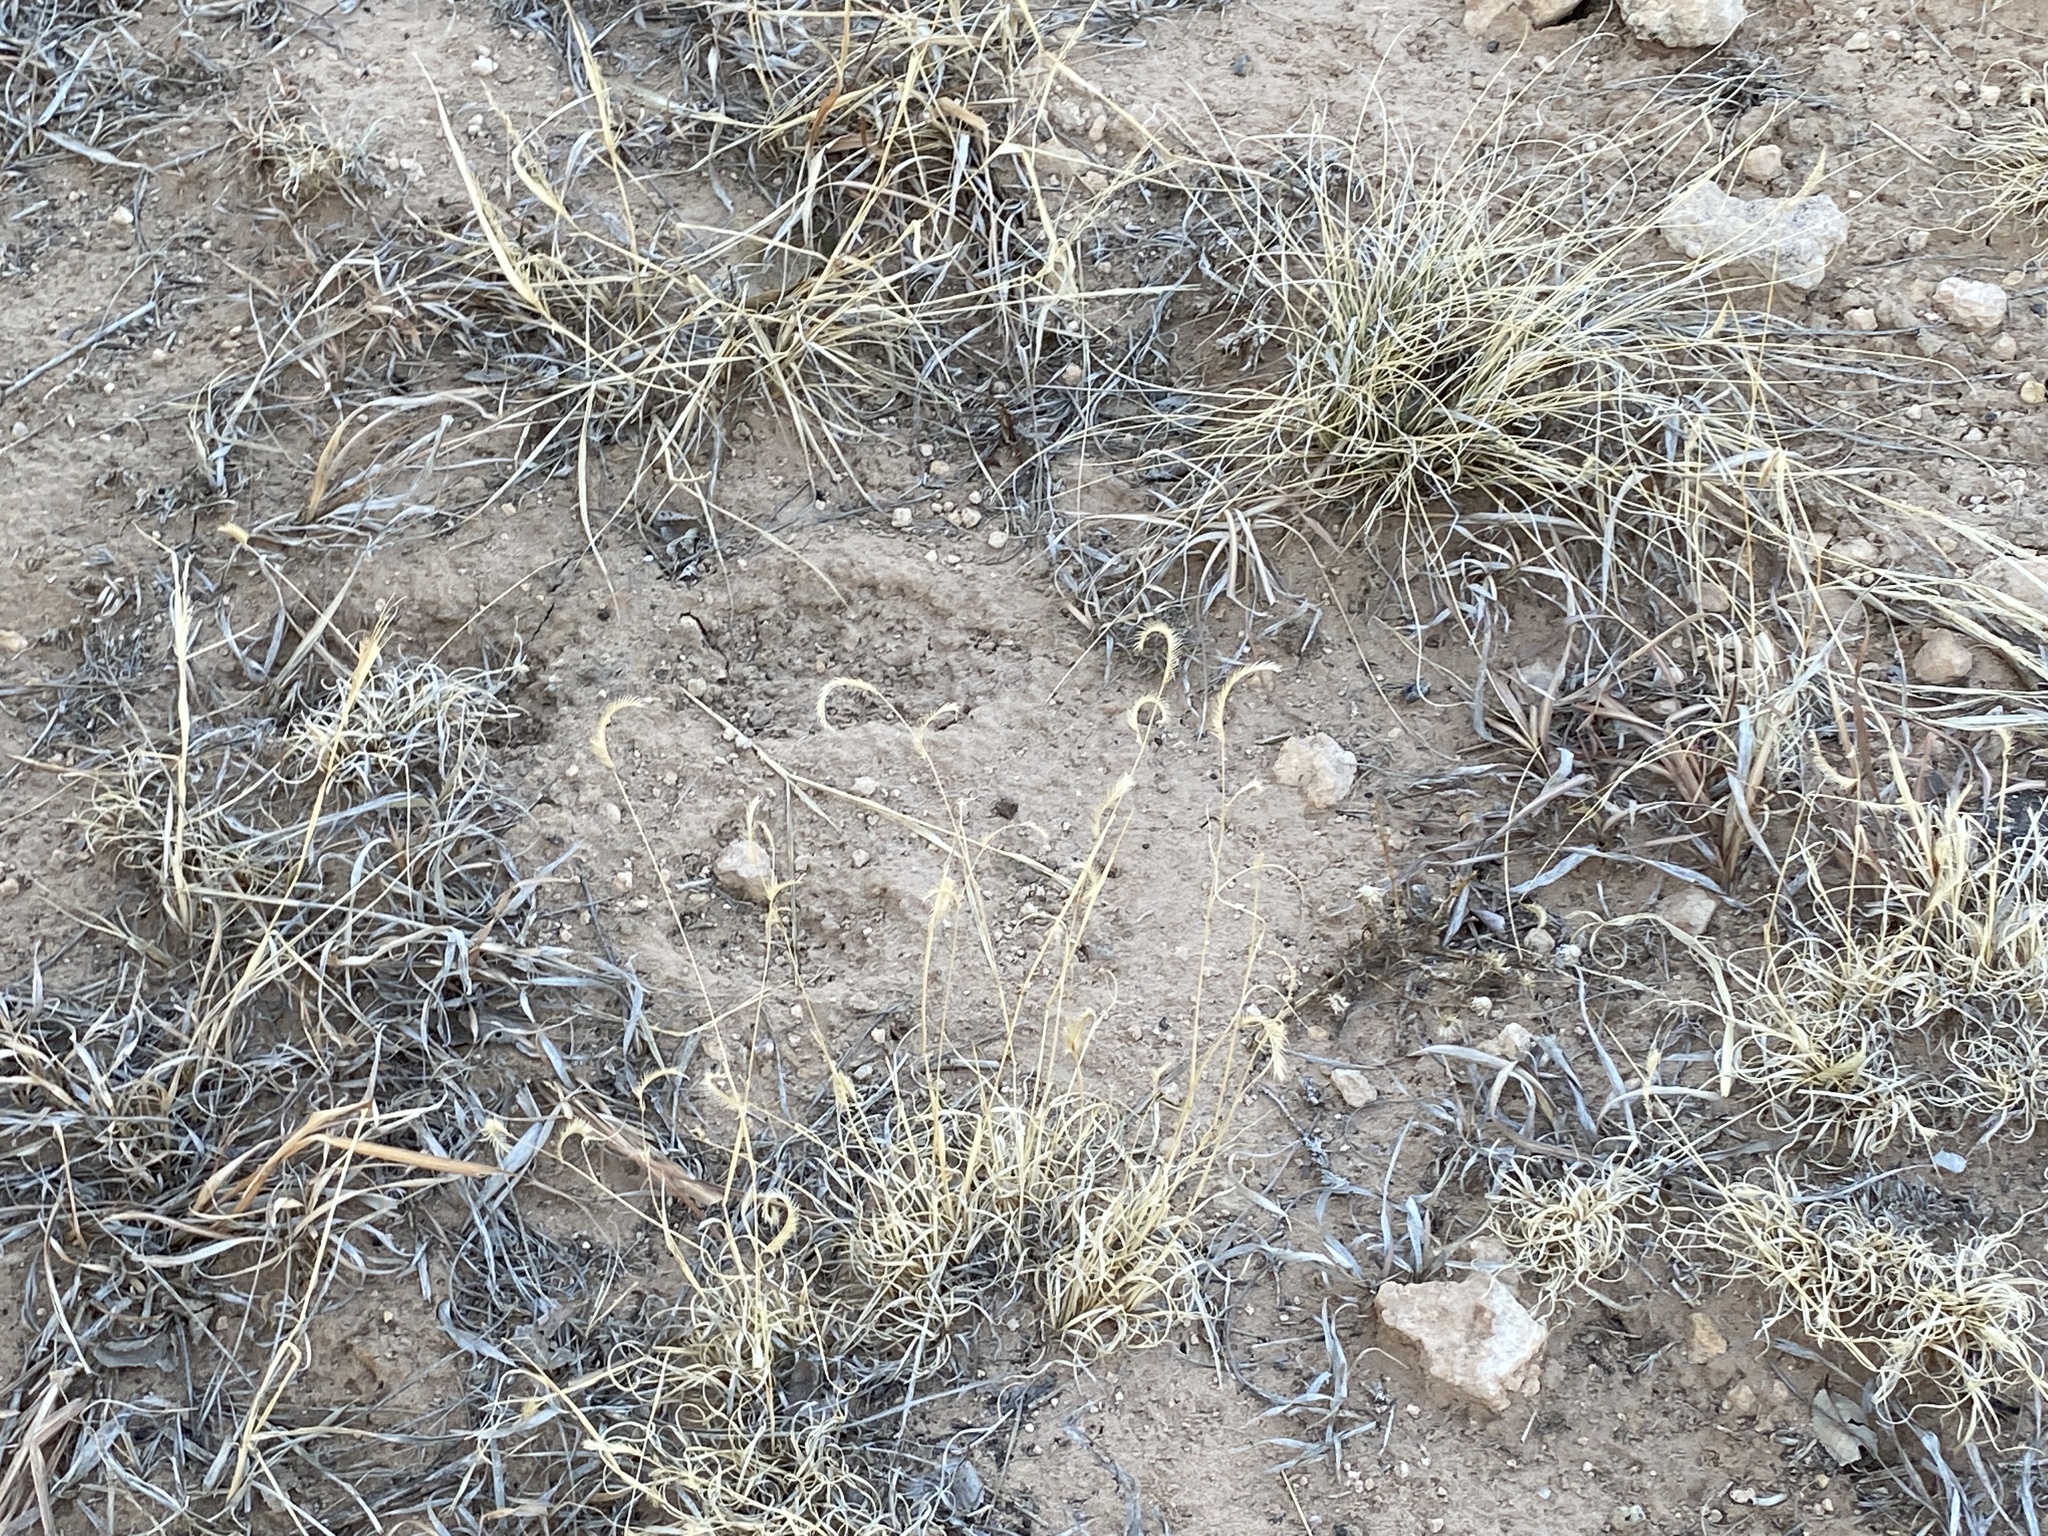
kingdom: Plantae
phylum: Tracheophyta
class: Liliopsida
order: Poales
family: Poaceae
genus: Bouteloua
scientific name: Bouteloua gracilis
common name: Blue grama
